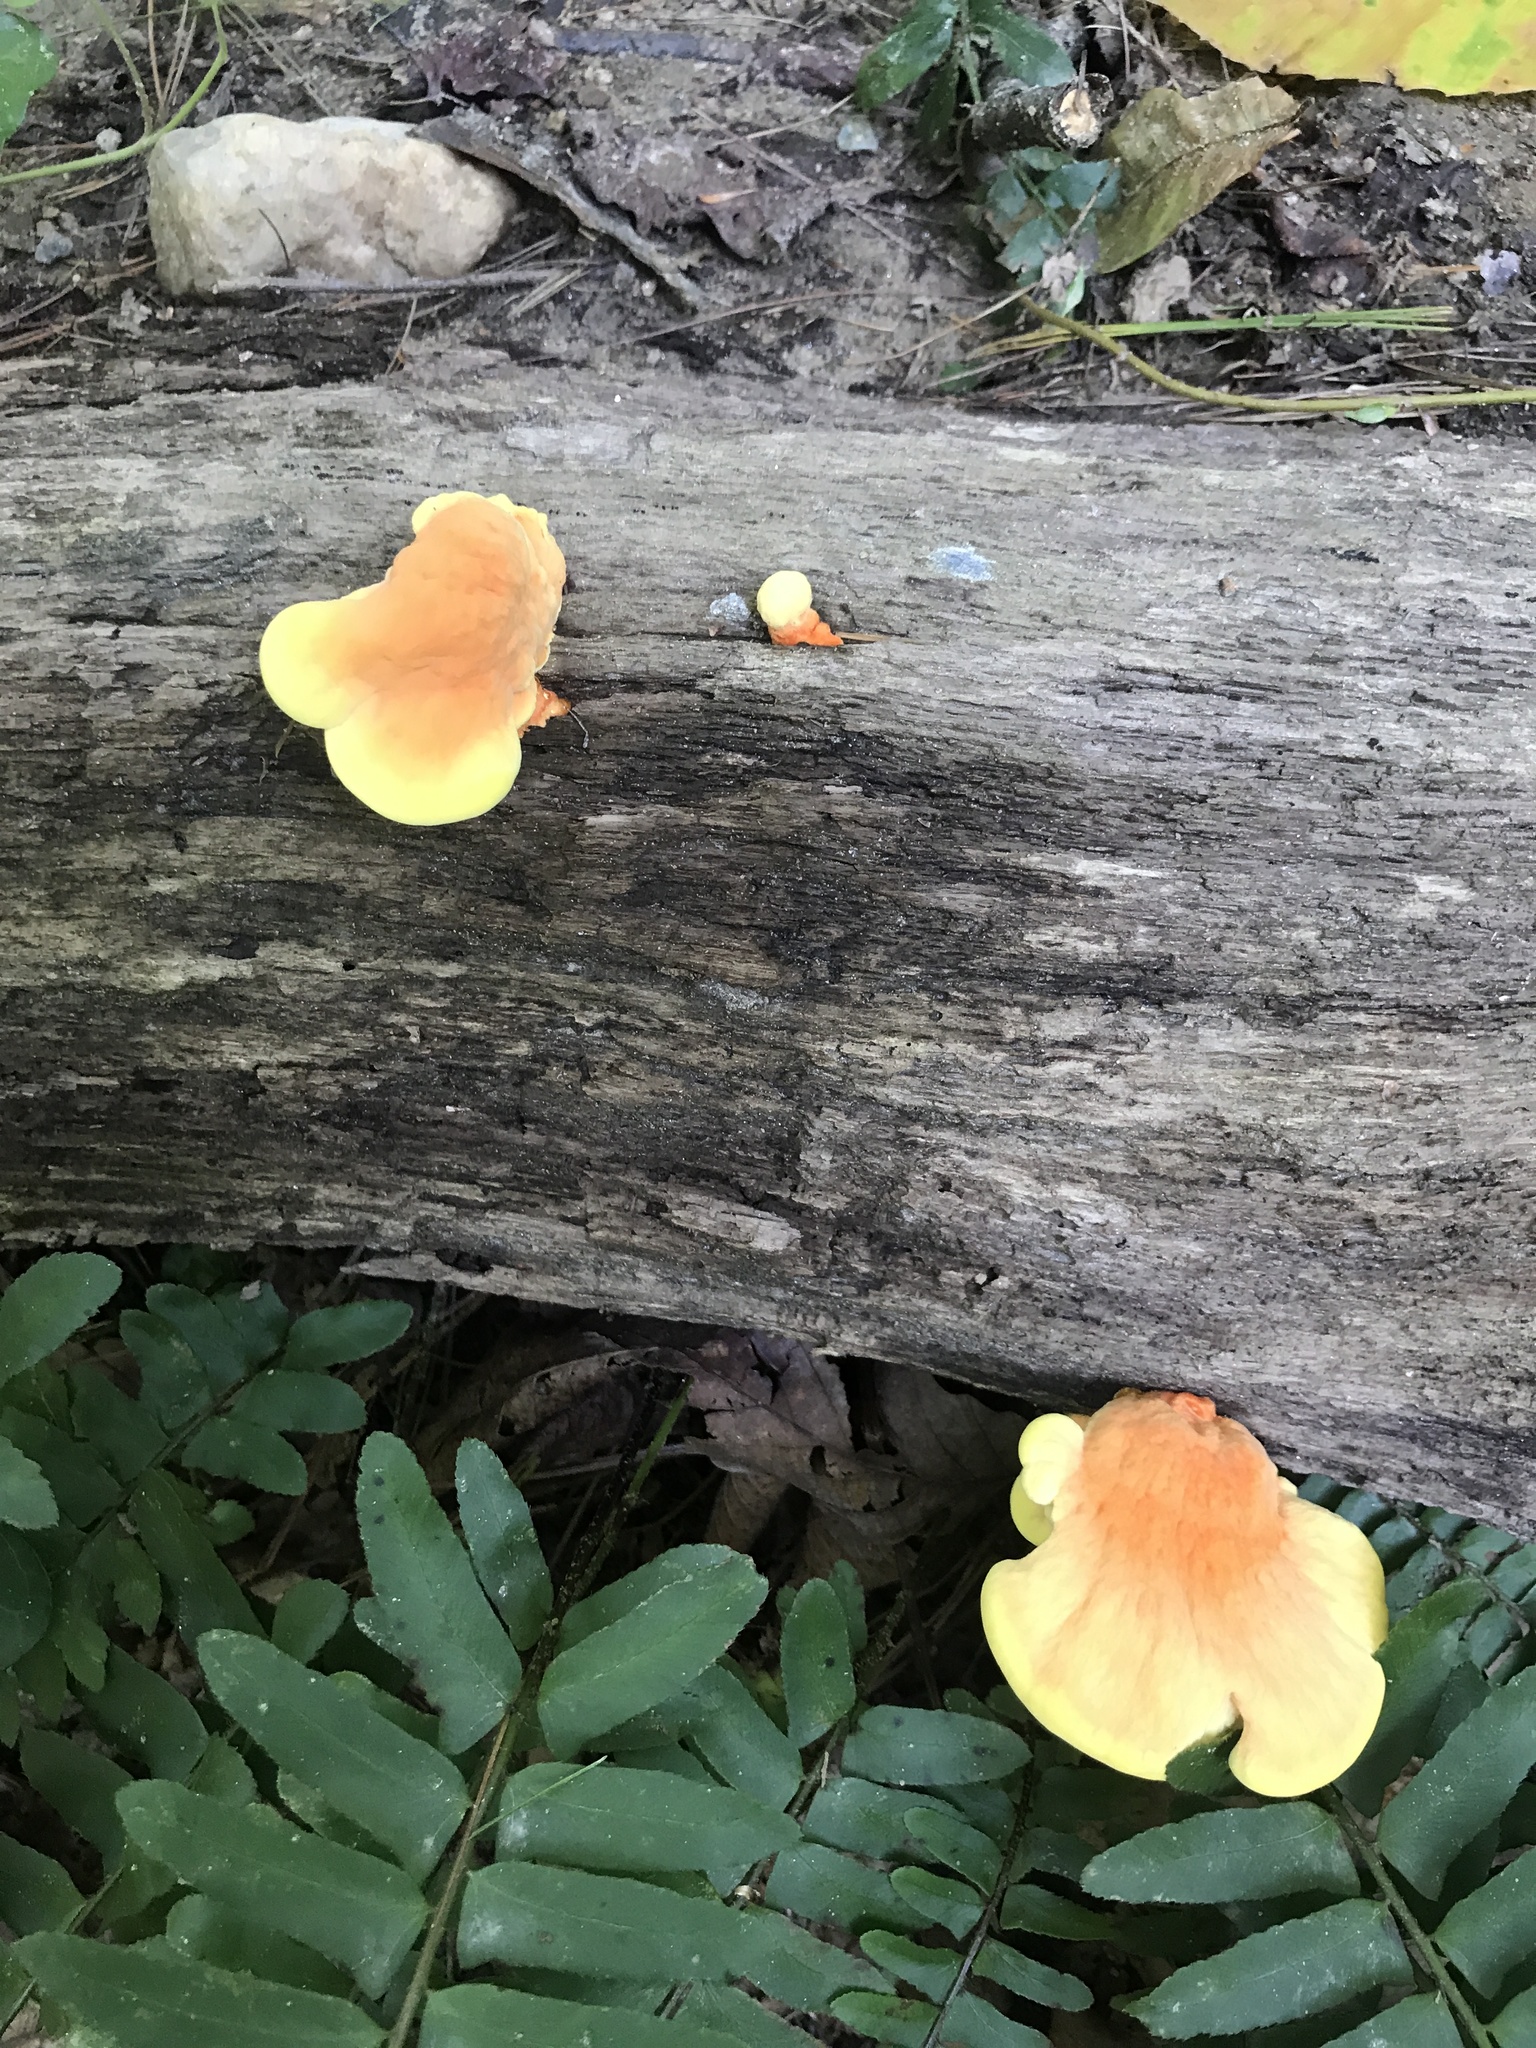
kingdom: Fungi
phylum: Basidiomycota
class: Agaricomycetes
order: Polyporales
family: Laetiporaceae
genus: Laetiporus
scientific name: Laetiporus sulphureus
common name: Chicken of the woods
